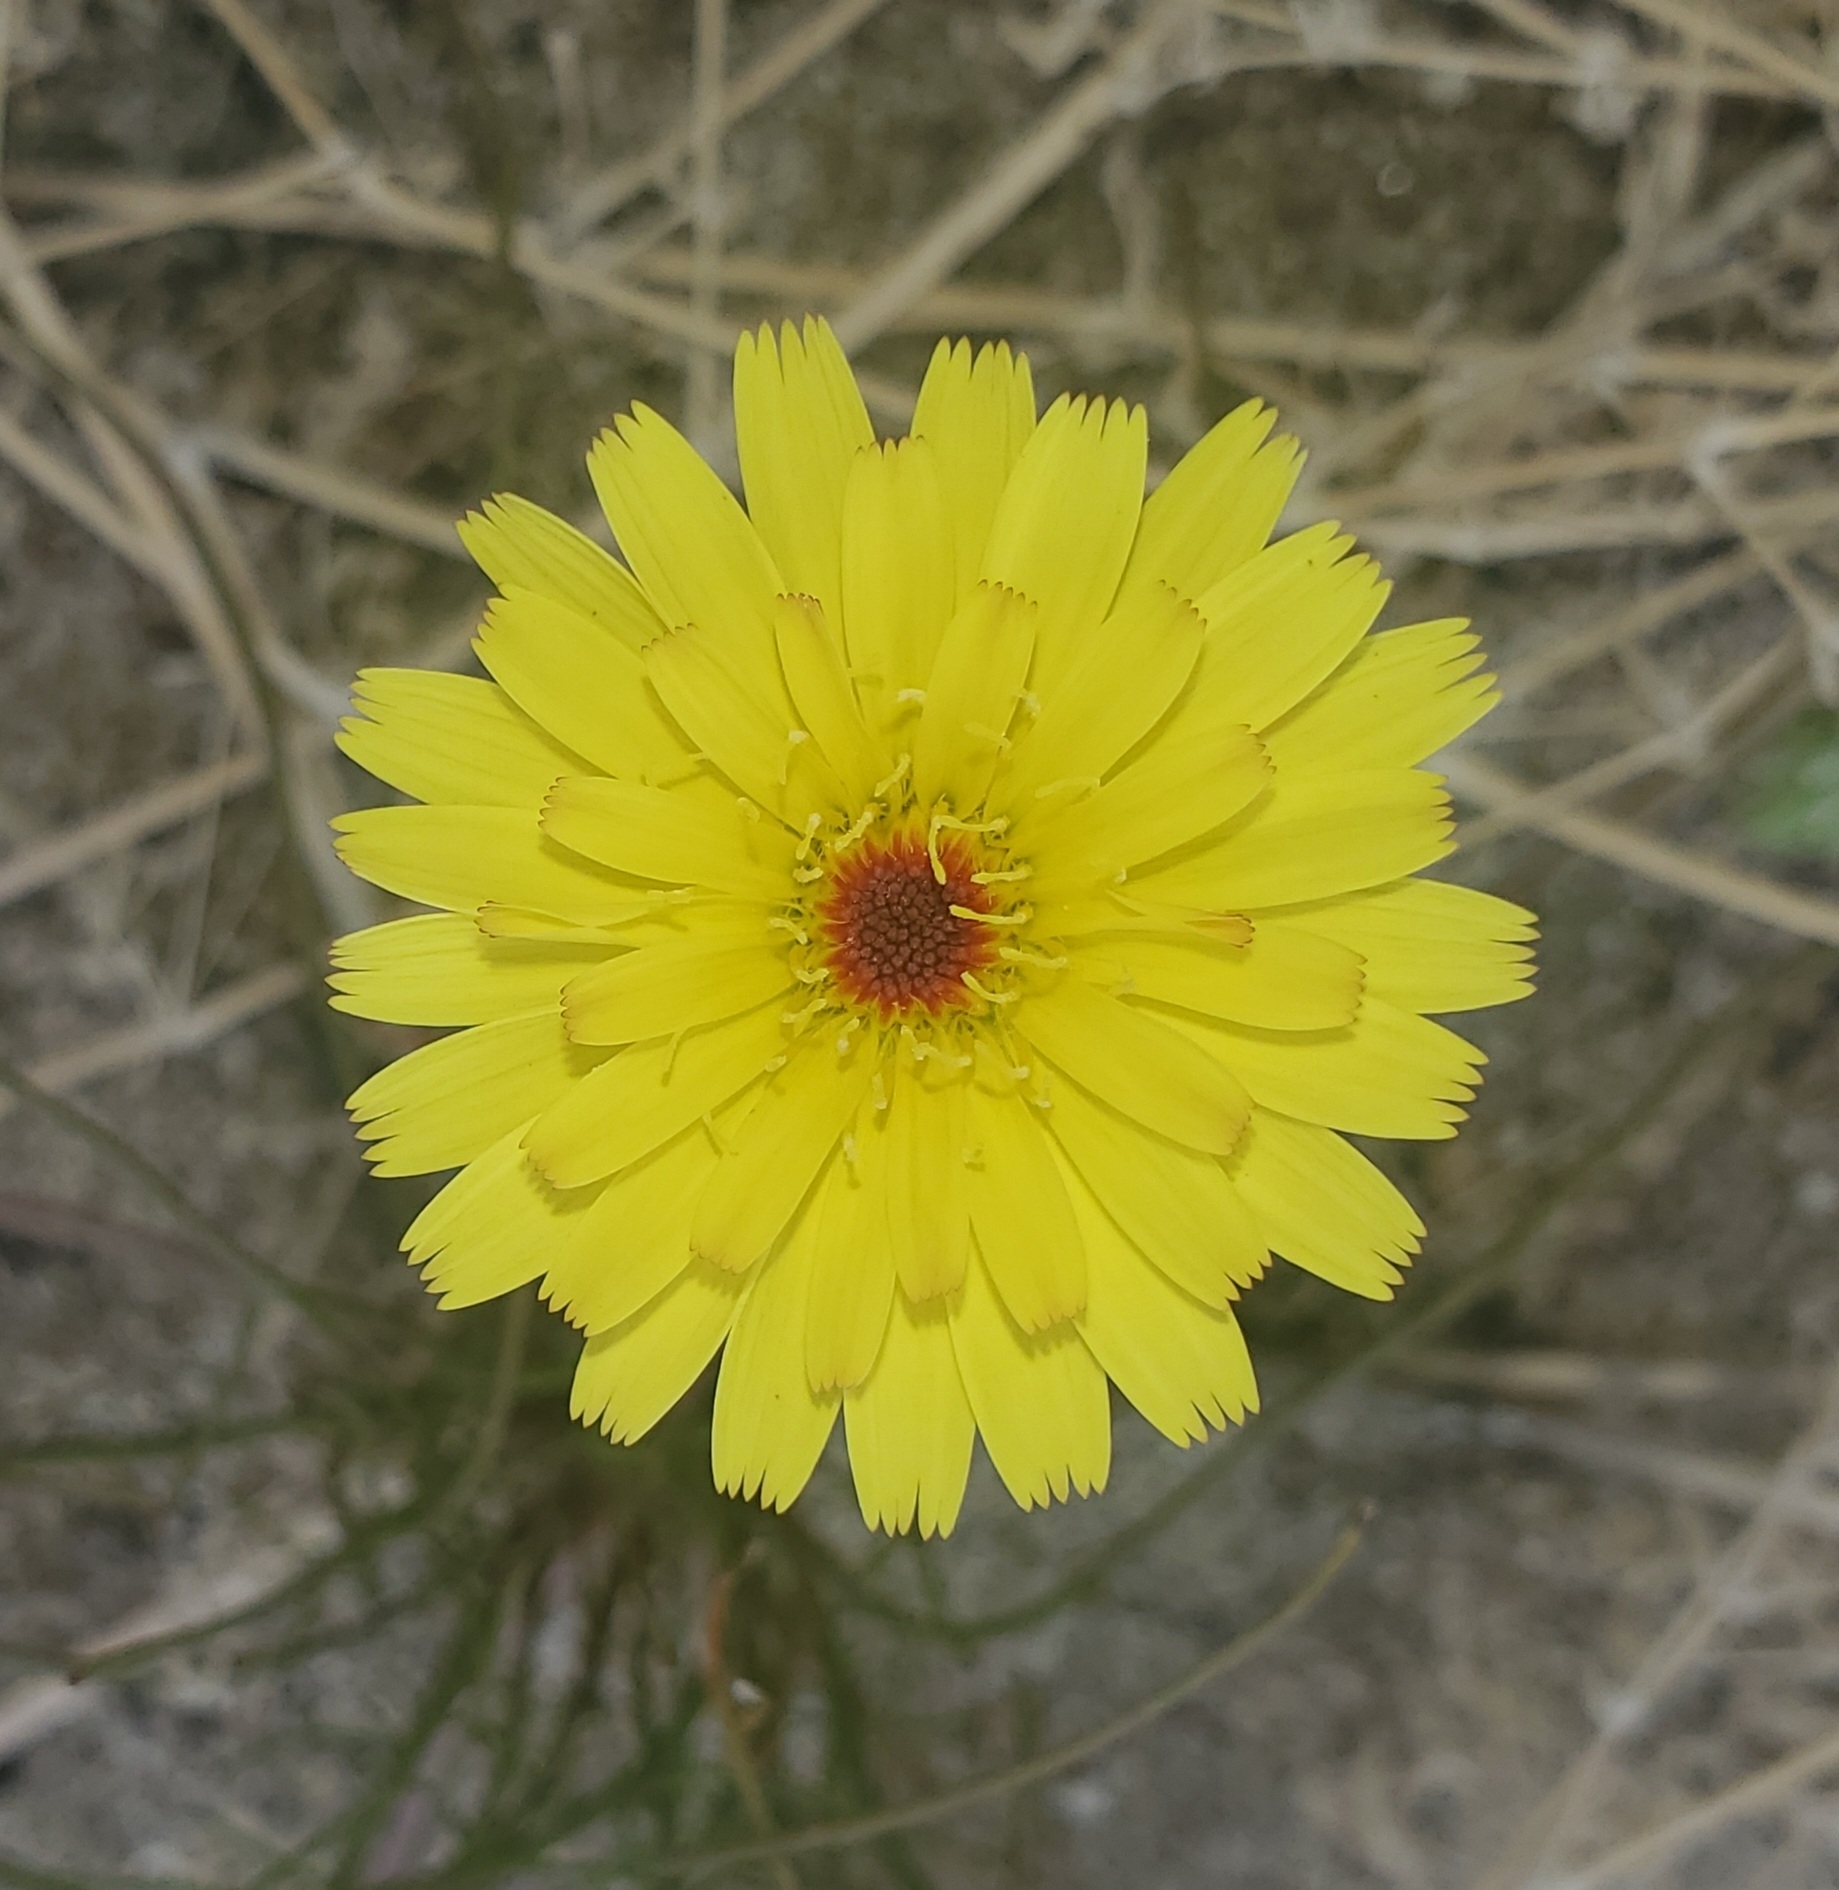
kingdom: Plantae
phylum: Tracheophyta
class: Magnoliopsida
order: Asterales
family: Asteraceae
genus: Malacothrix
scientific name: Malacothrix glabrata
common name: Smooth desert-dandelion
